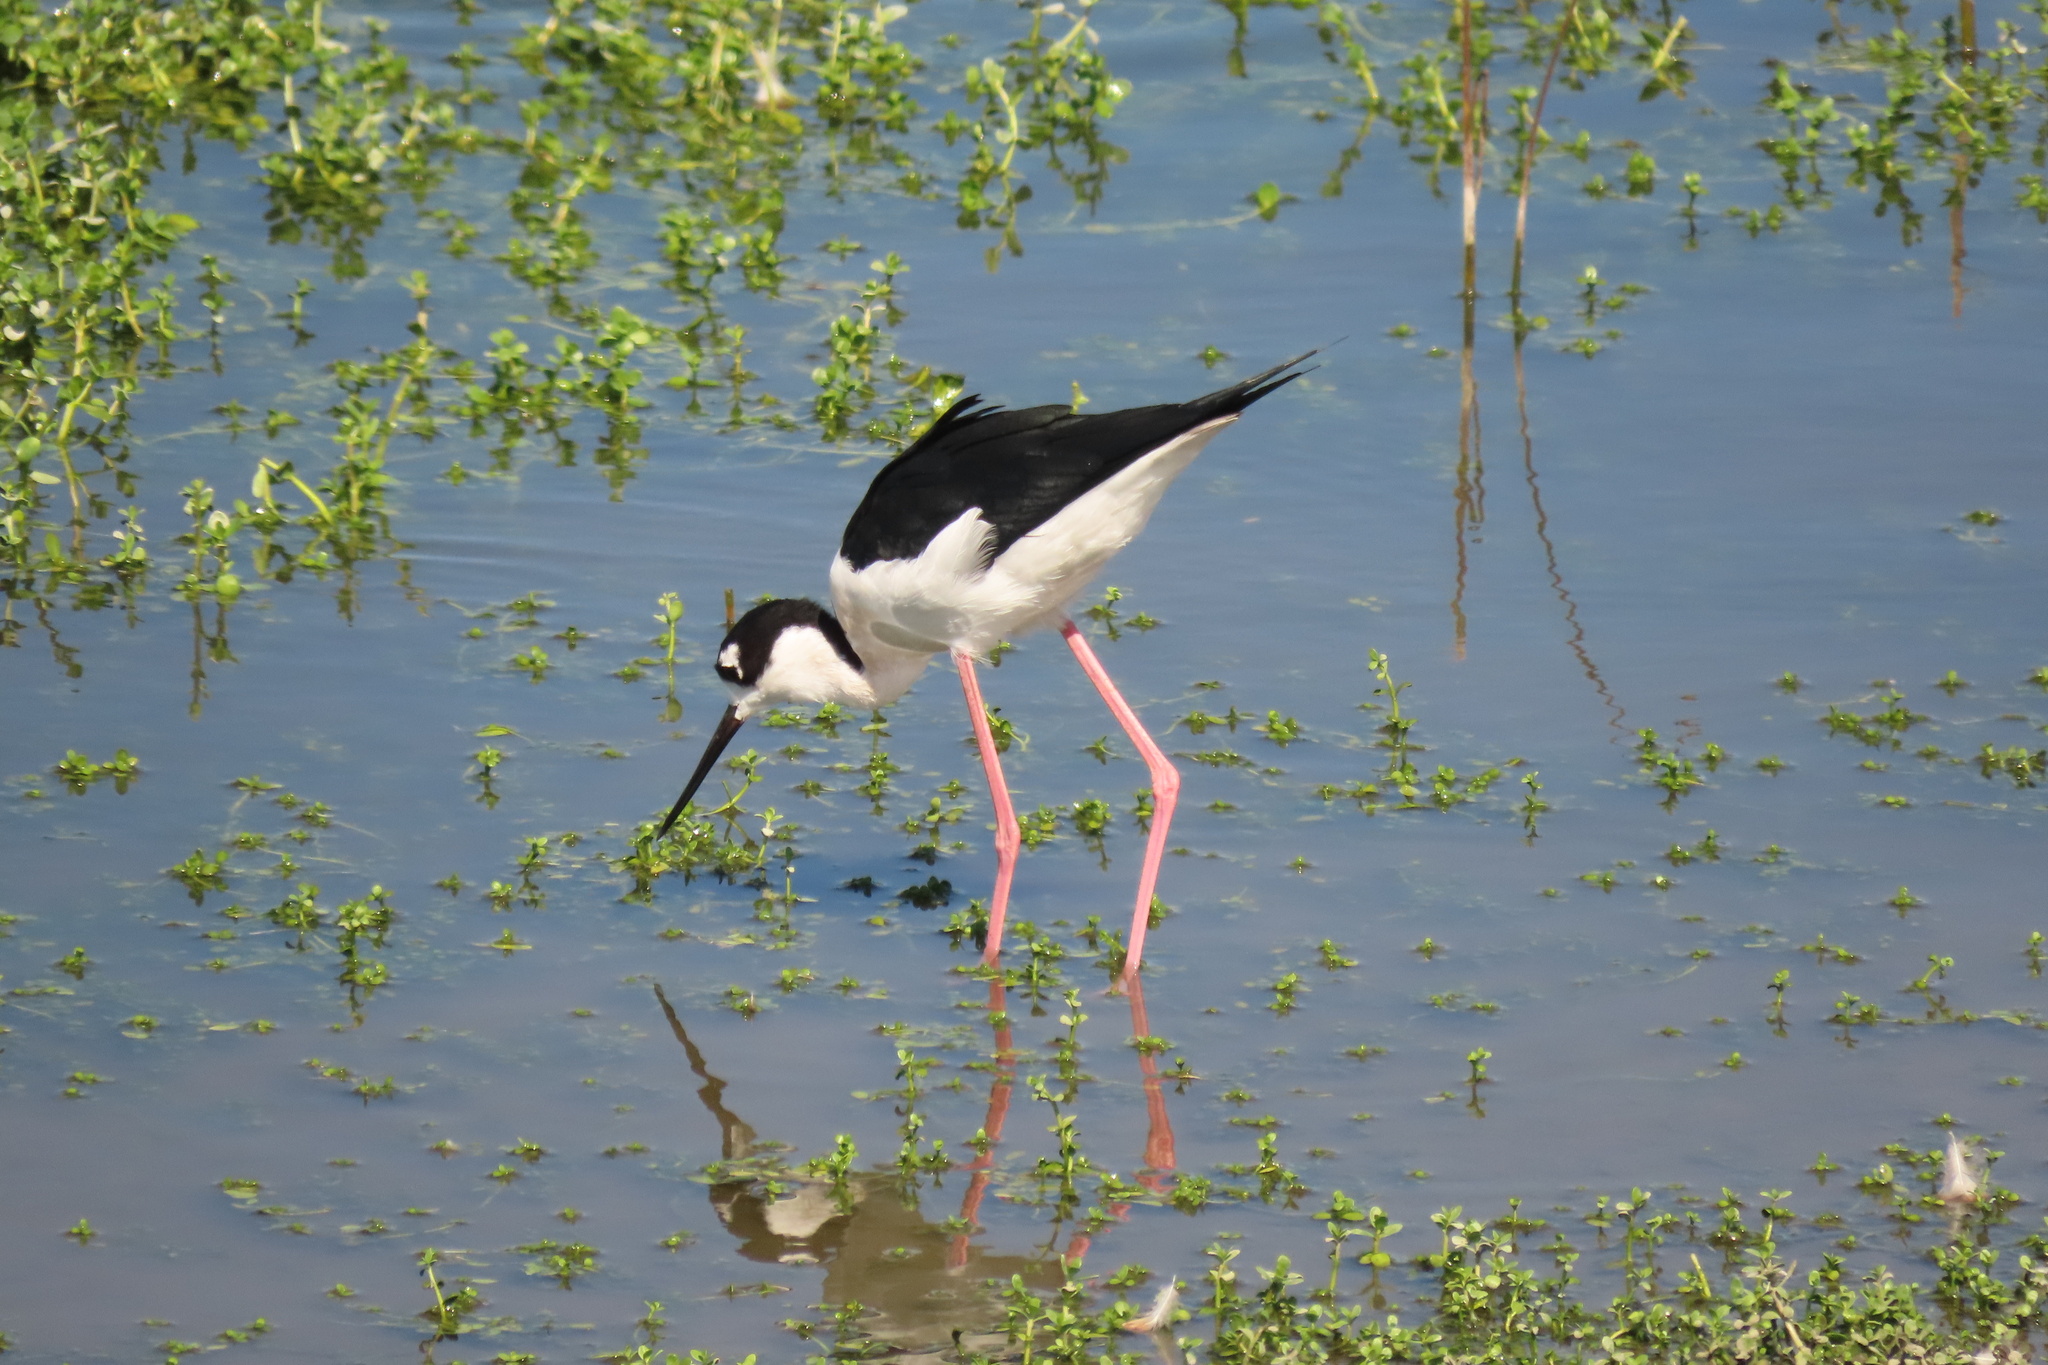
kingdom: Animalia
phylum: Chordata
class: Aves
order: Charadriiformes
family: Recurvirostridae
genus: Himantopus
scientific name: Himantopus mexicanus
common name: Black-necked stilt
